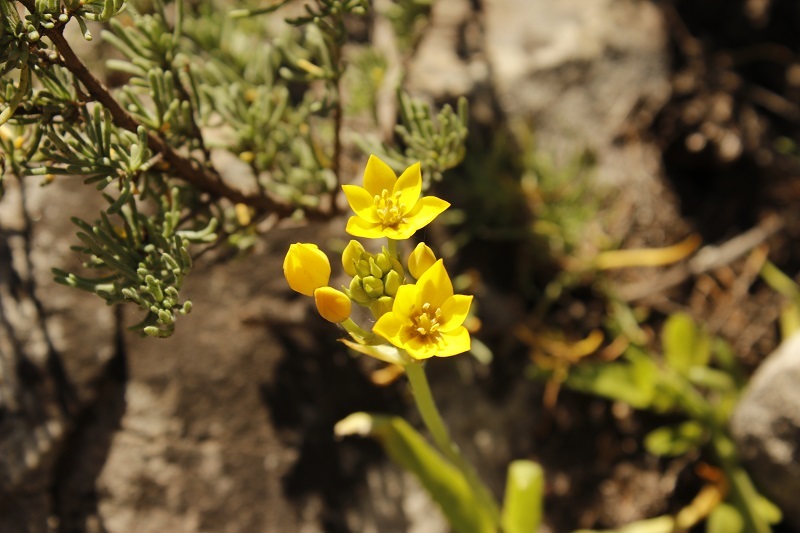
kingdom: Plantae
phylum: Tracheophyta
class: Liliopsida
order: Asparagales
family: Asparagaceae
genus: Ornithogalum
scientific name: Ornithogalum dubium
